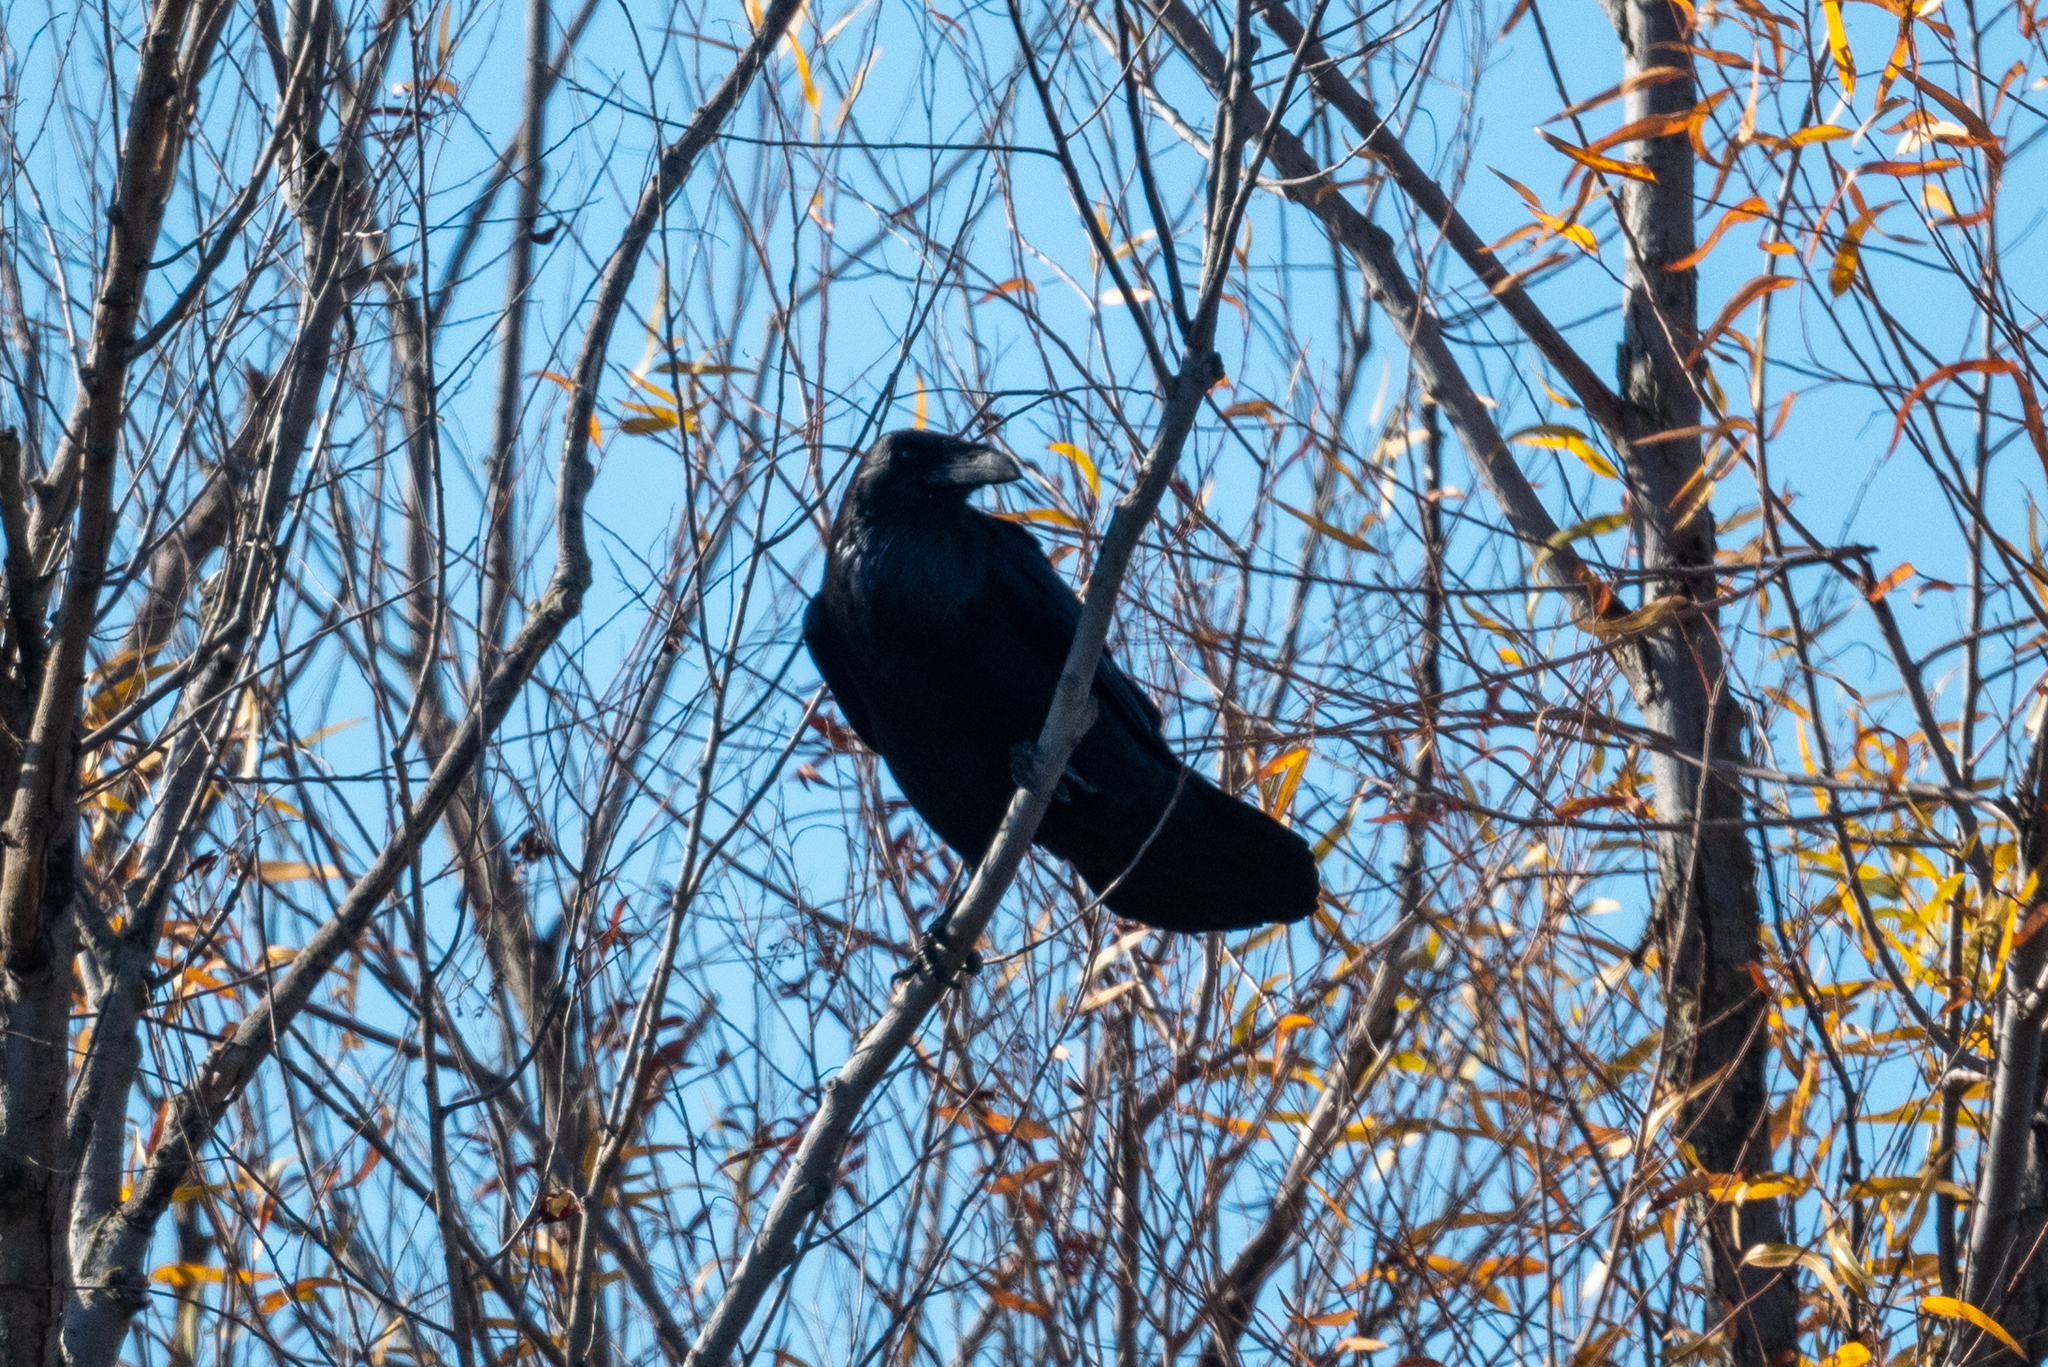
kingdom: Animalia
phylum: Chordata
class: Aves
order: Passeriformes
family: Corvidae
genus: Corvus
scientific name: Corvus corax
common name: Common raven
